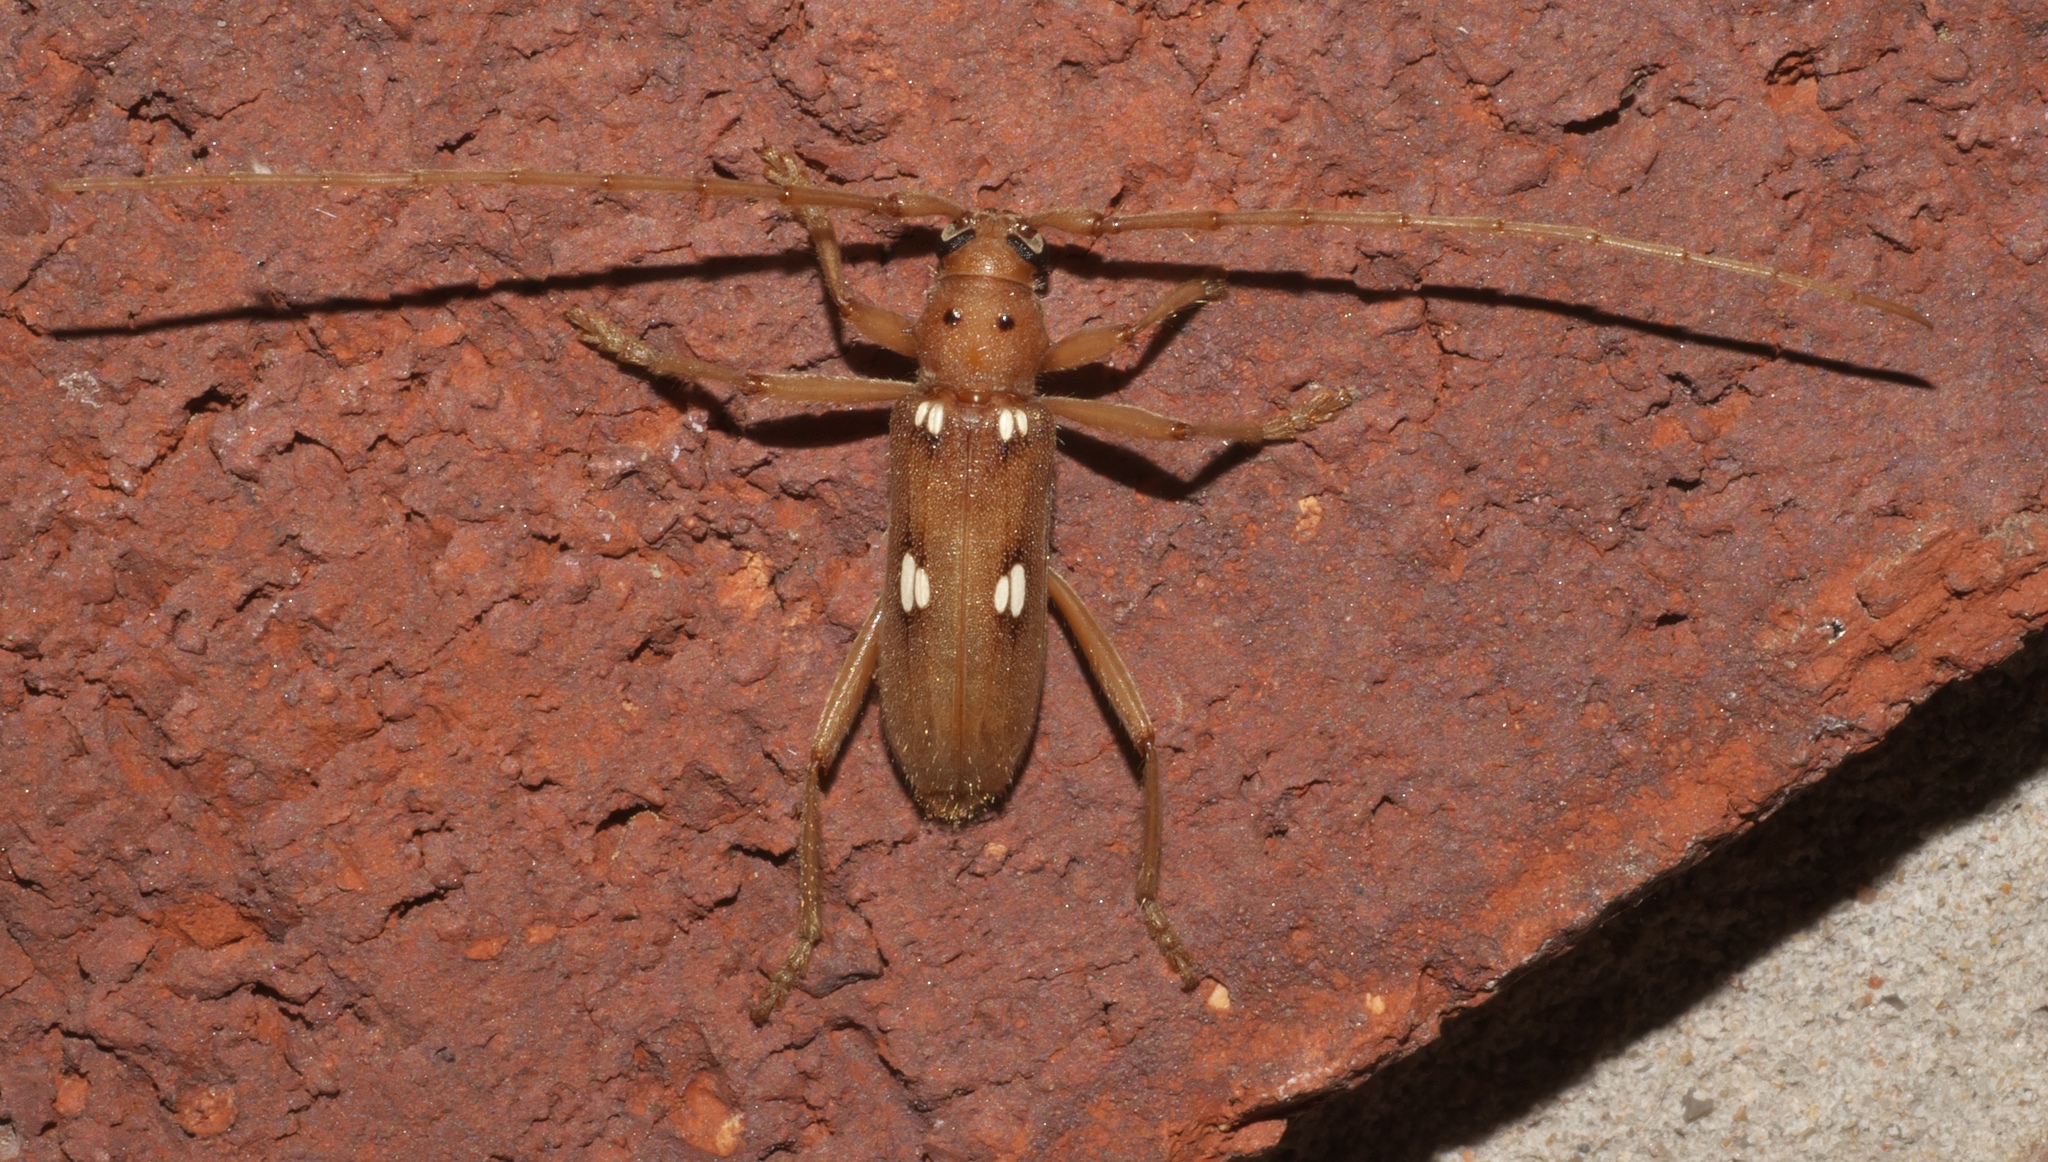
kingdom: Animalia
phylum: Arthropoda
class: Insecta
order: Coleoptera
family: Cerambycidae
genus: Eburia
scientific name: Eburia quadrigeminata
